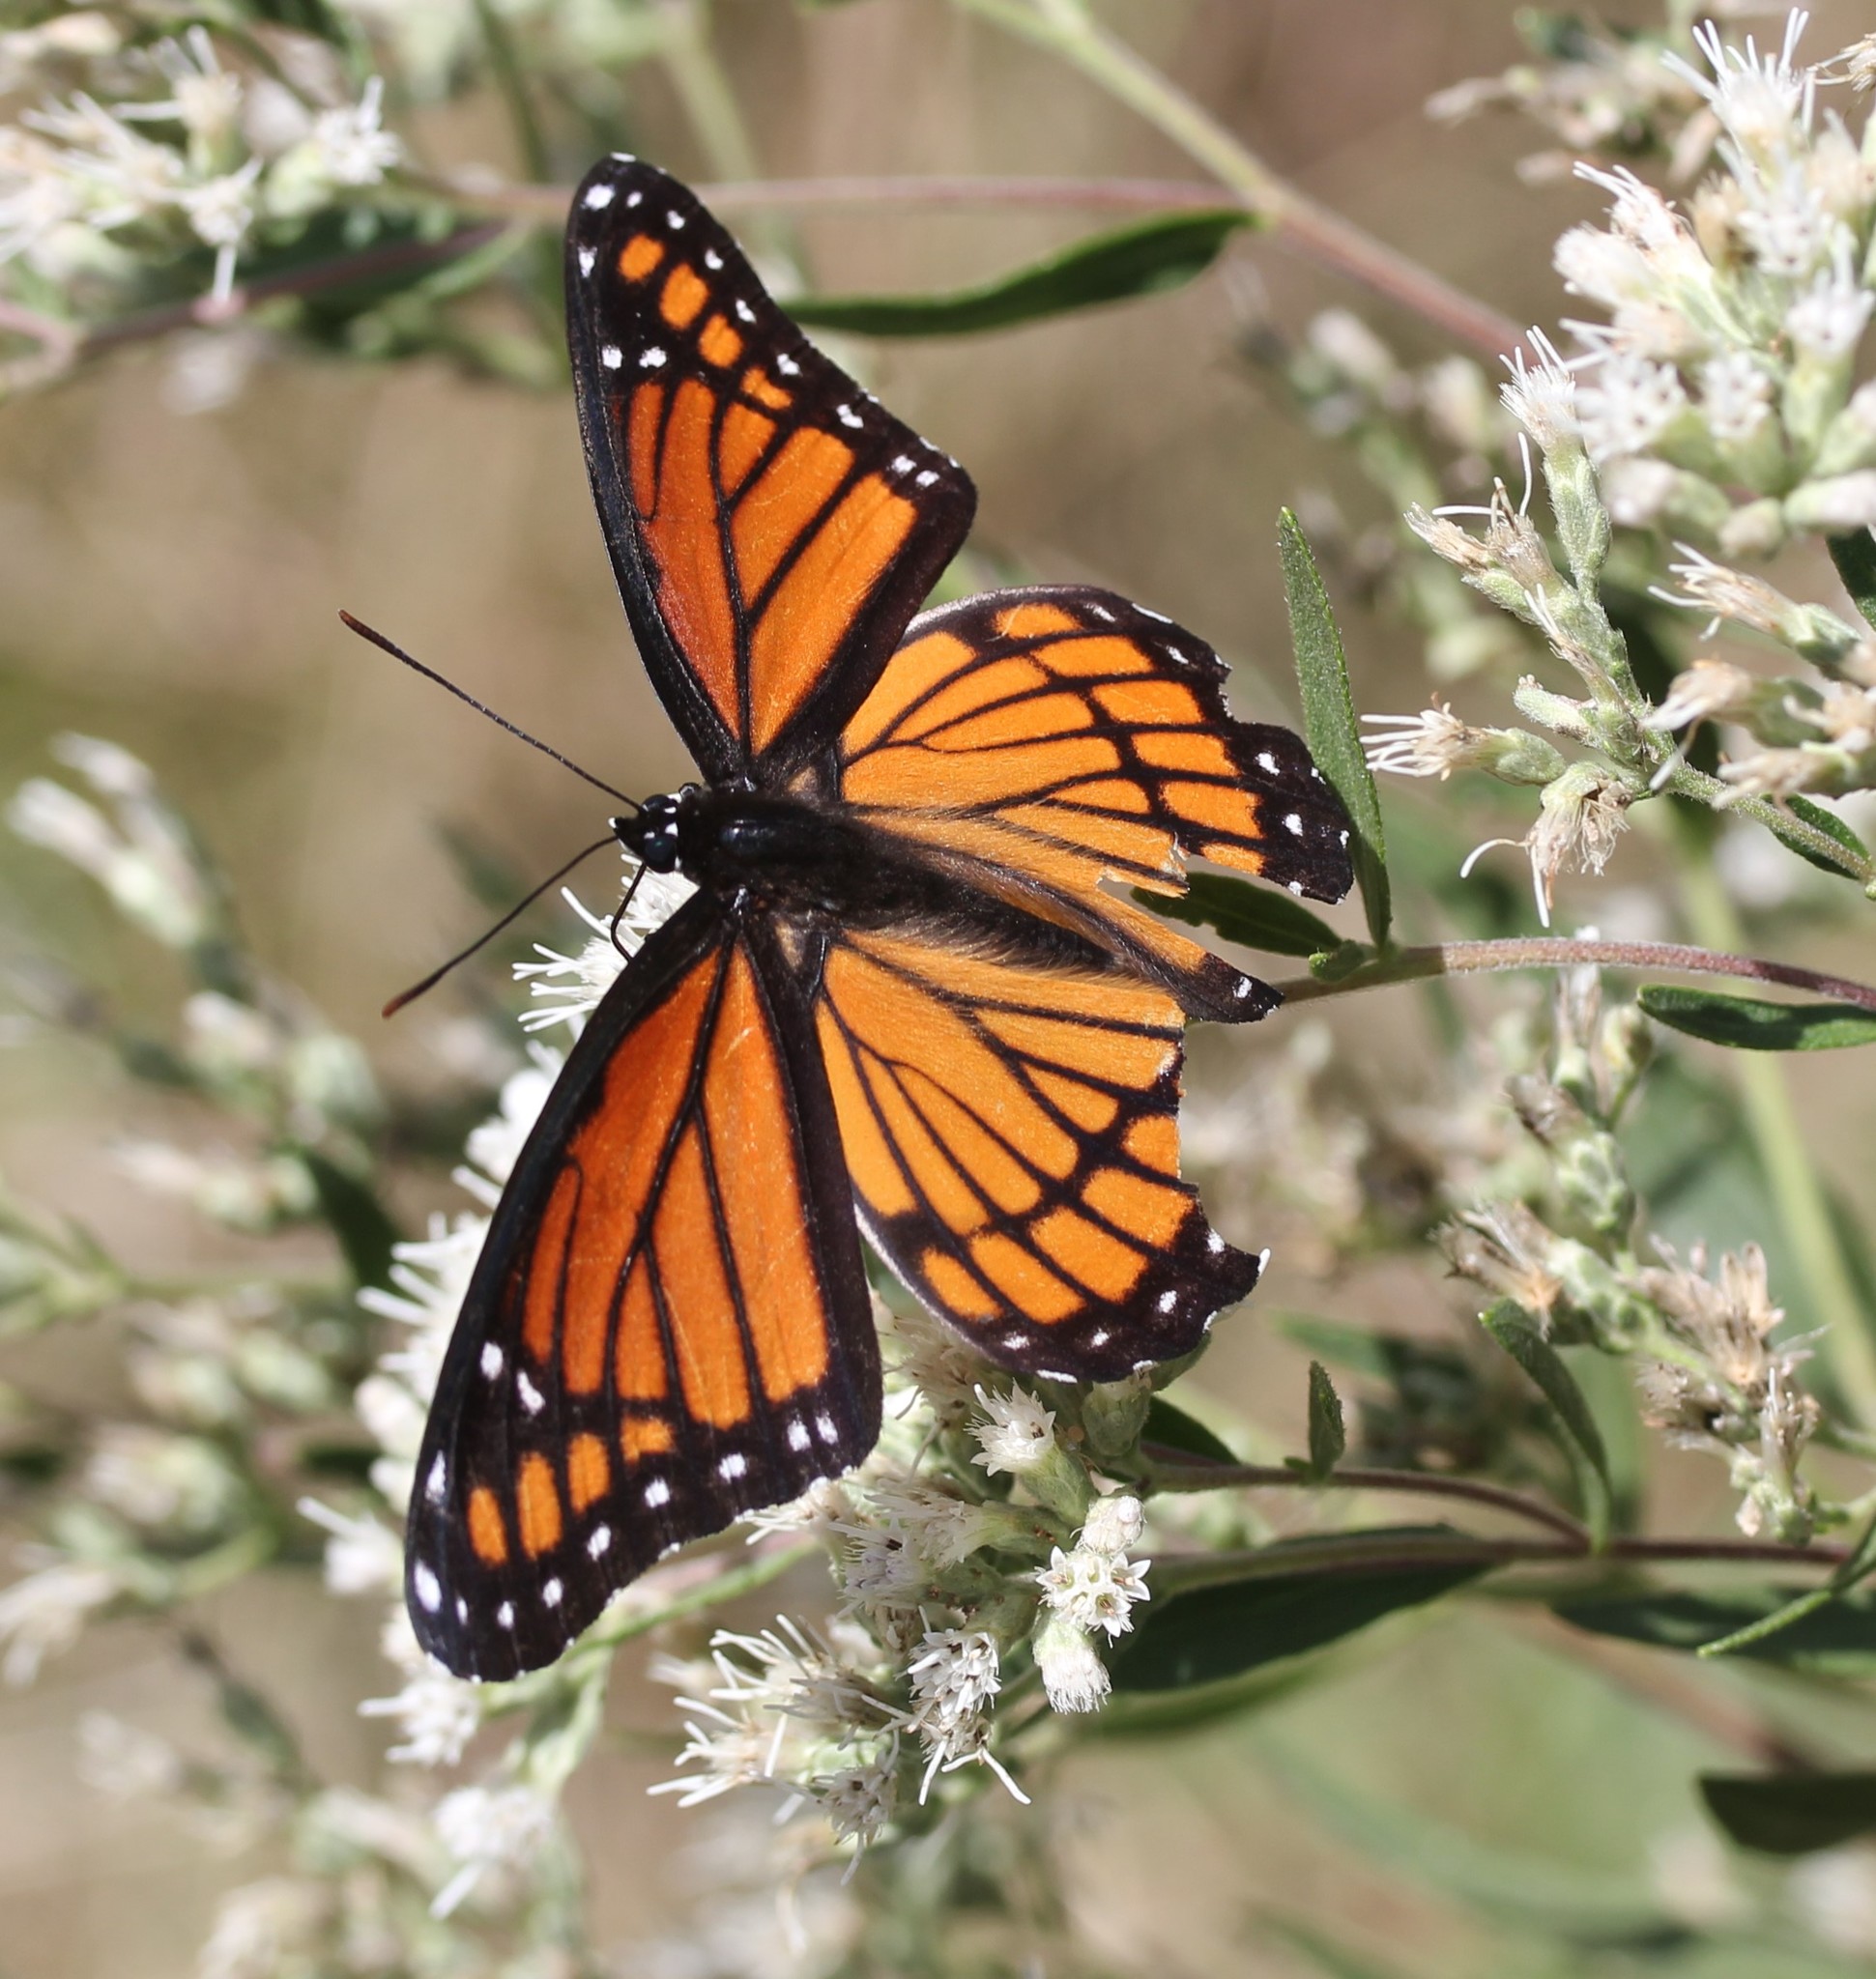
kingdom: Animalia
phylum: Arthropoda
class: Insecta
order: Lepidoptera
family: Nymphalidae
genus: Limenitis
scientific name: Limenitis archippus
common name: Viceroy
